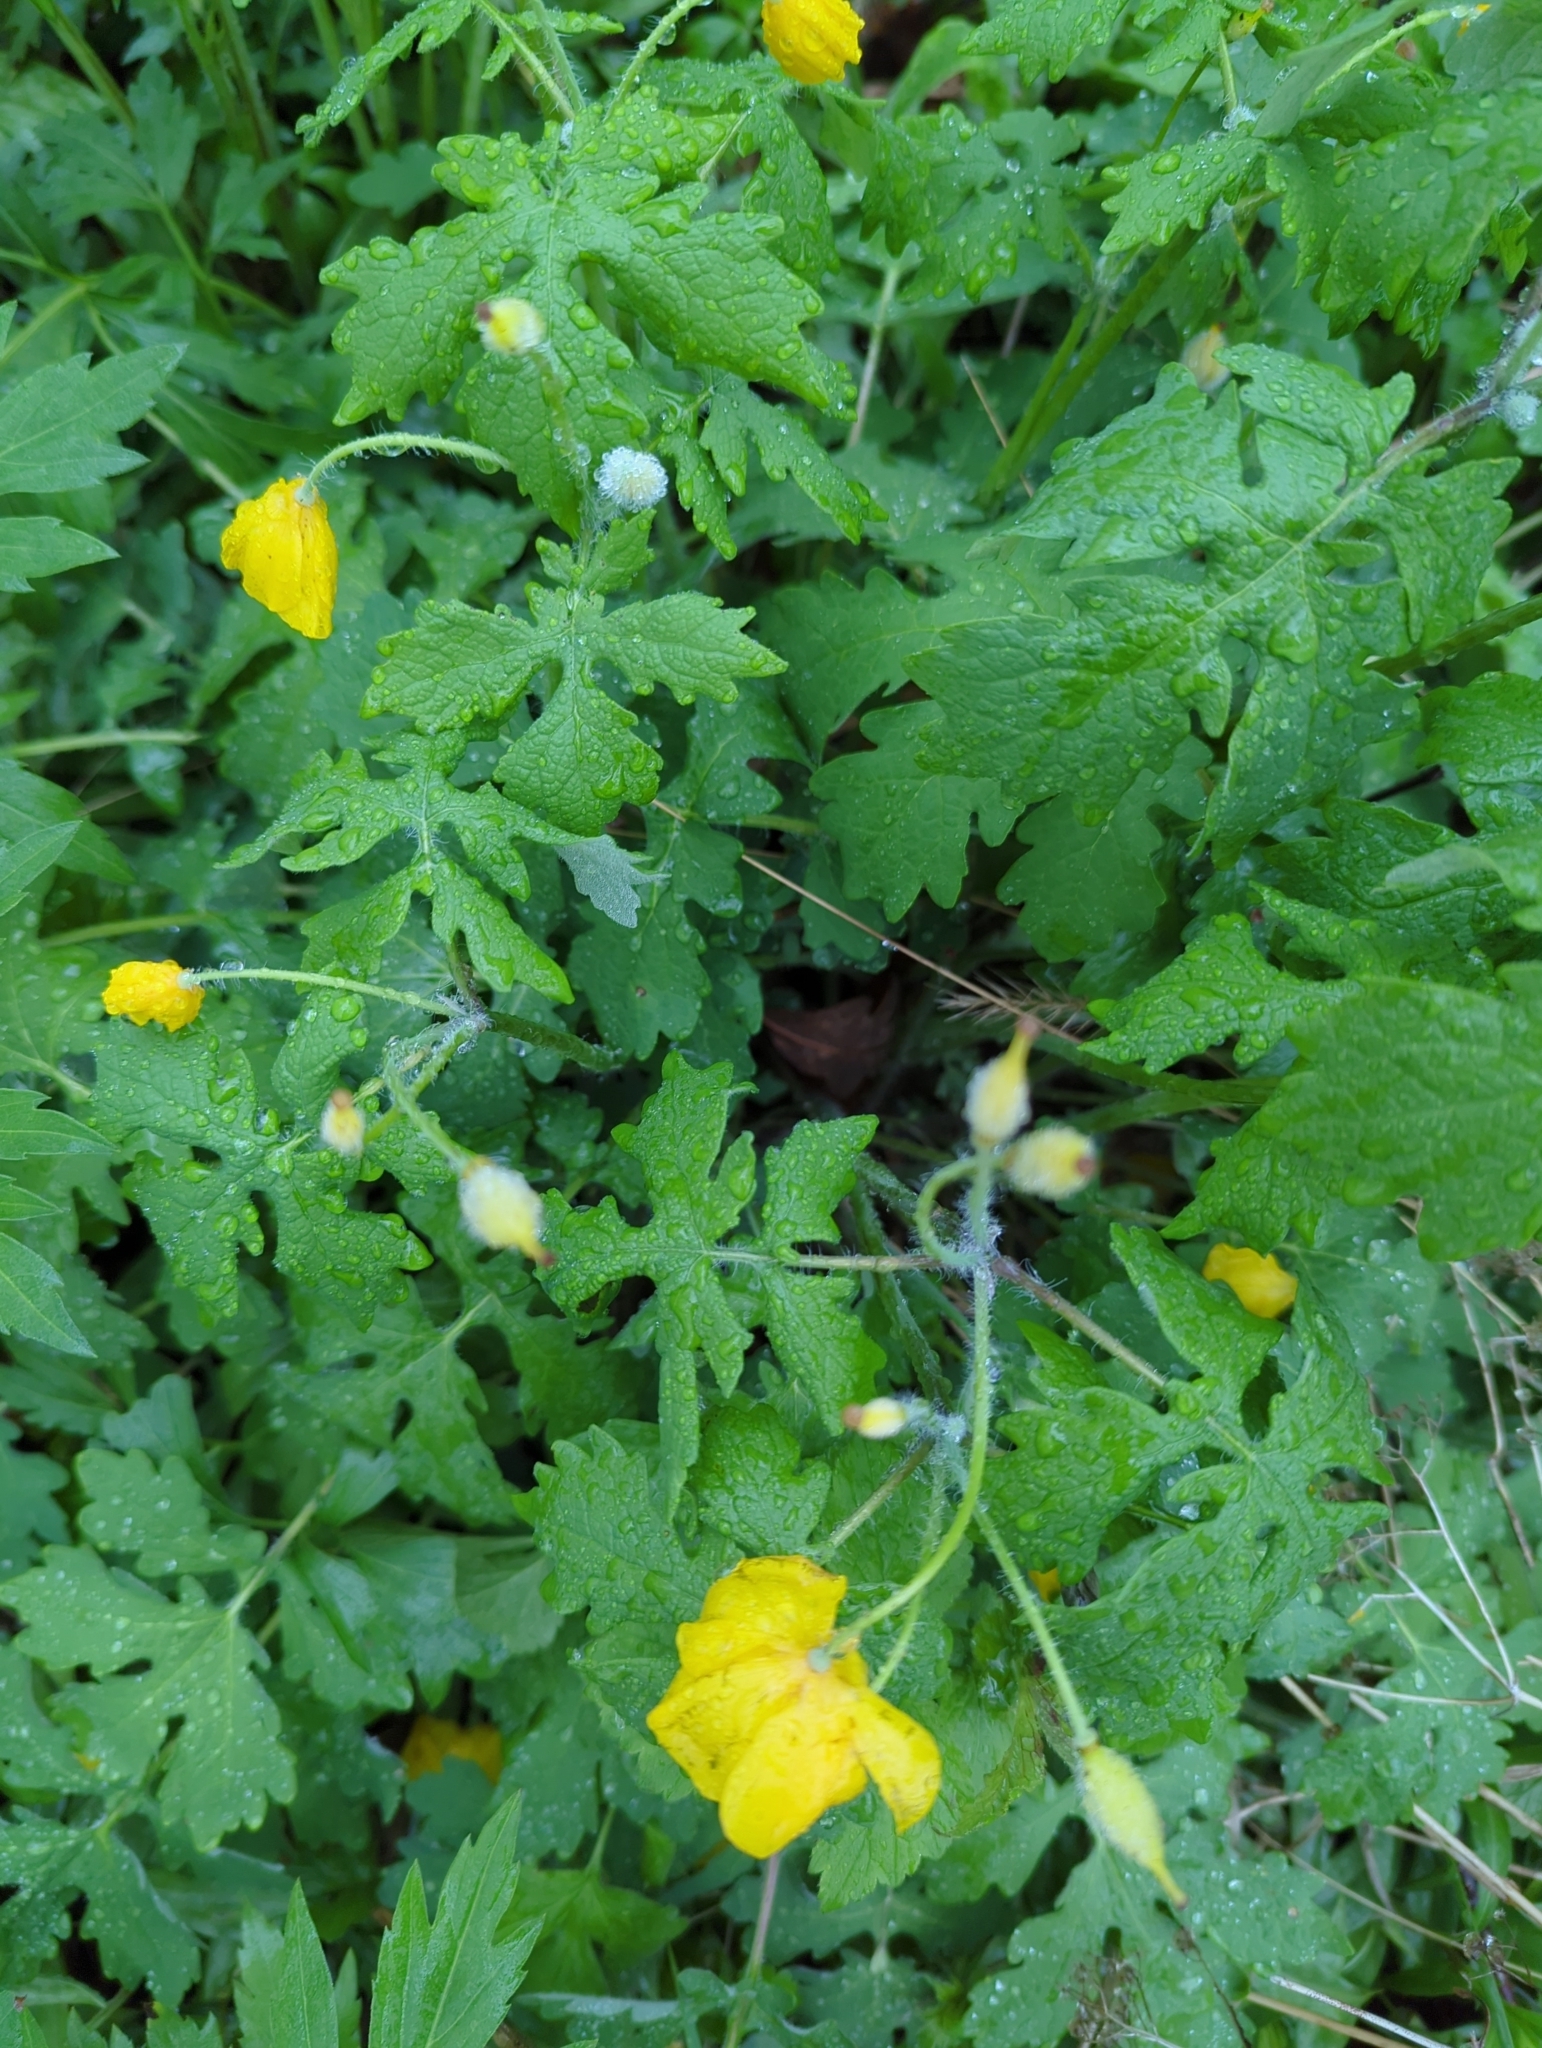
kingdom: Plantae
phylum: Tracheophyta
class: Magnoliopsida
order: Ranunculales
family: Papaveraceae
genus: Stylophorum
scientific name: Stylophorum diphyllum
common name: Celandine poppy
